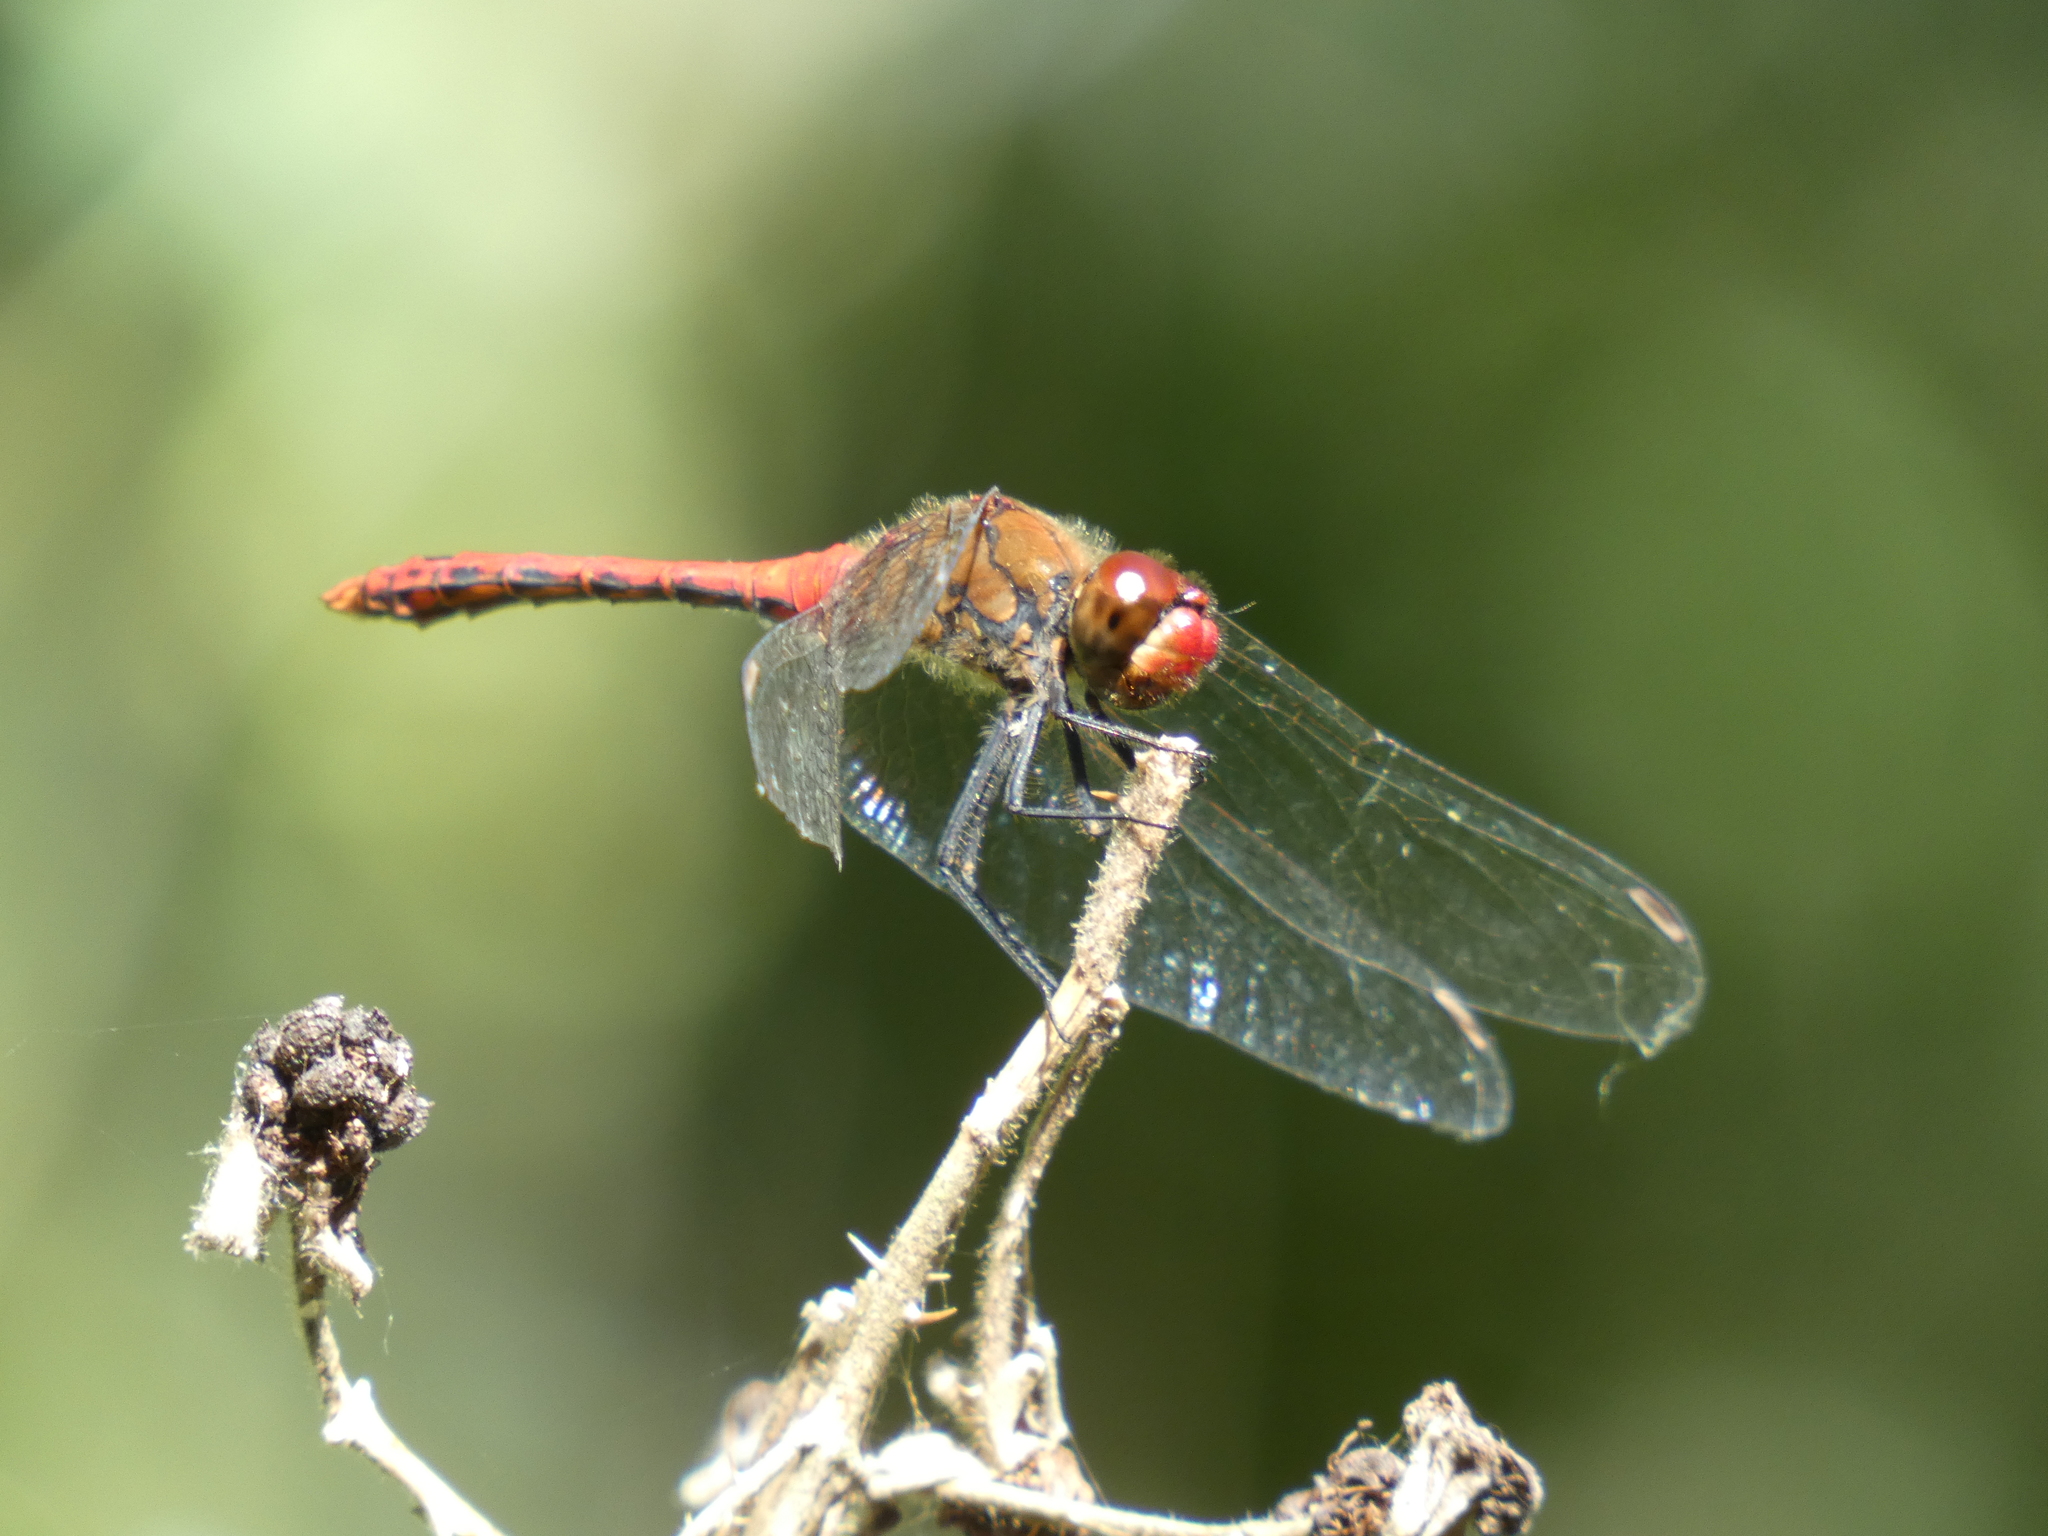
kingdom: Animalia
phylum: Arthropoda
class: Insecta
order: Odonata
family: Libellulidae
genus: Sympetrum
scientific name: Sympetrum sanguineum
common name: Ruddy darter
